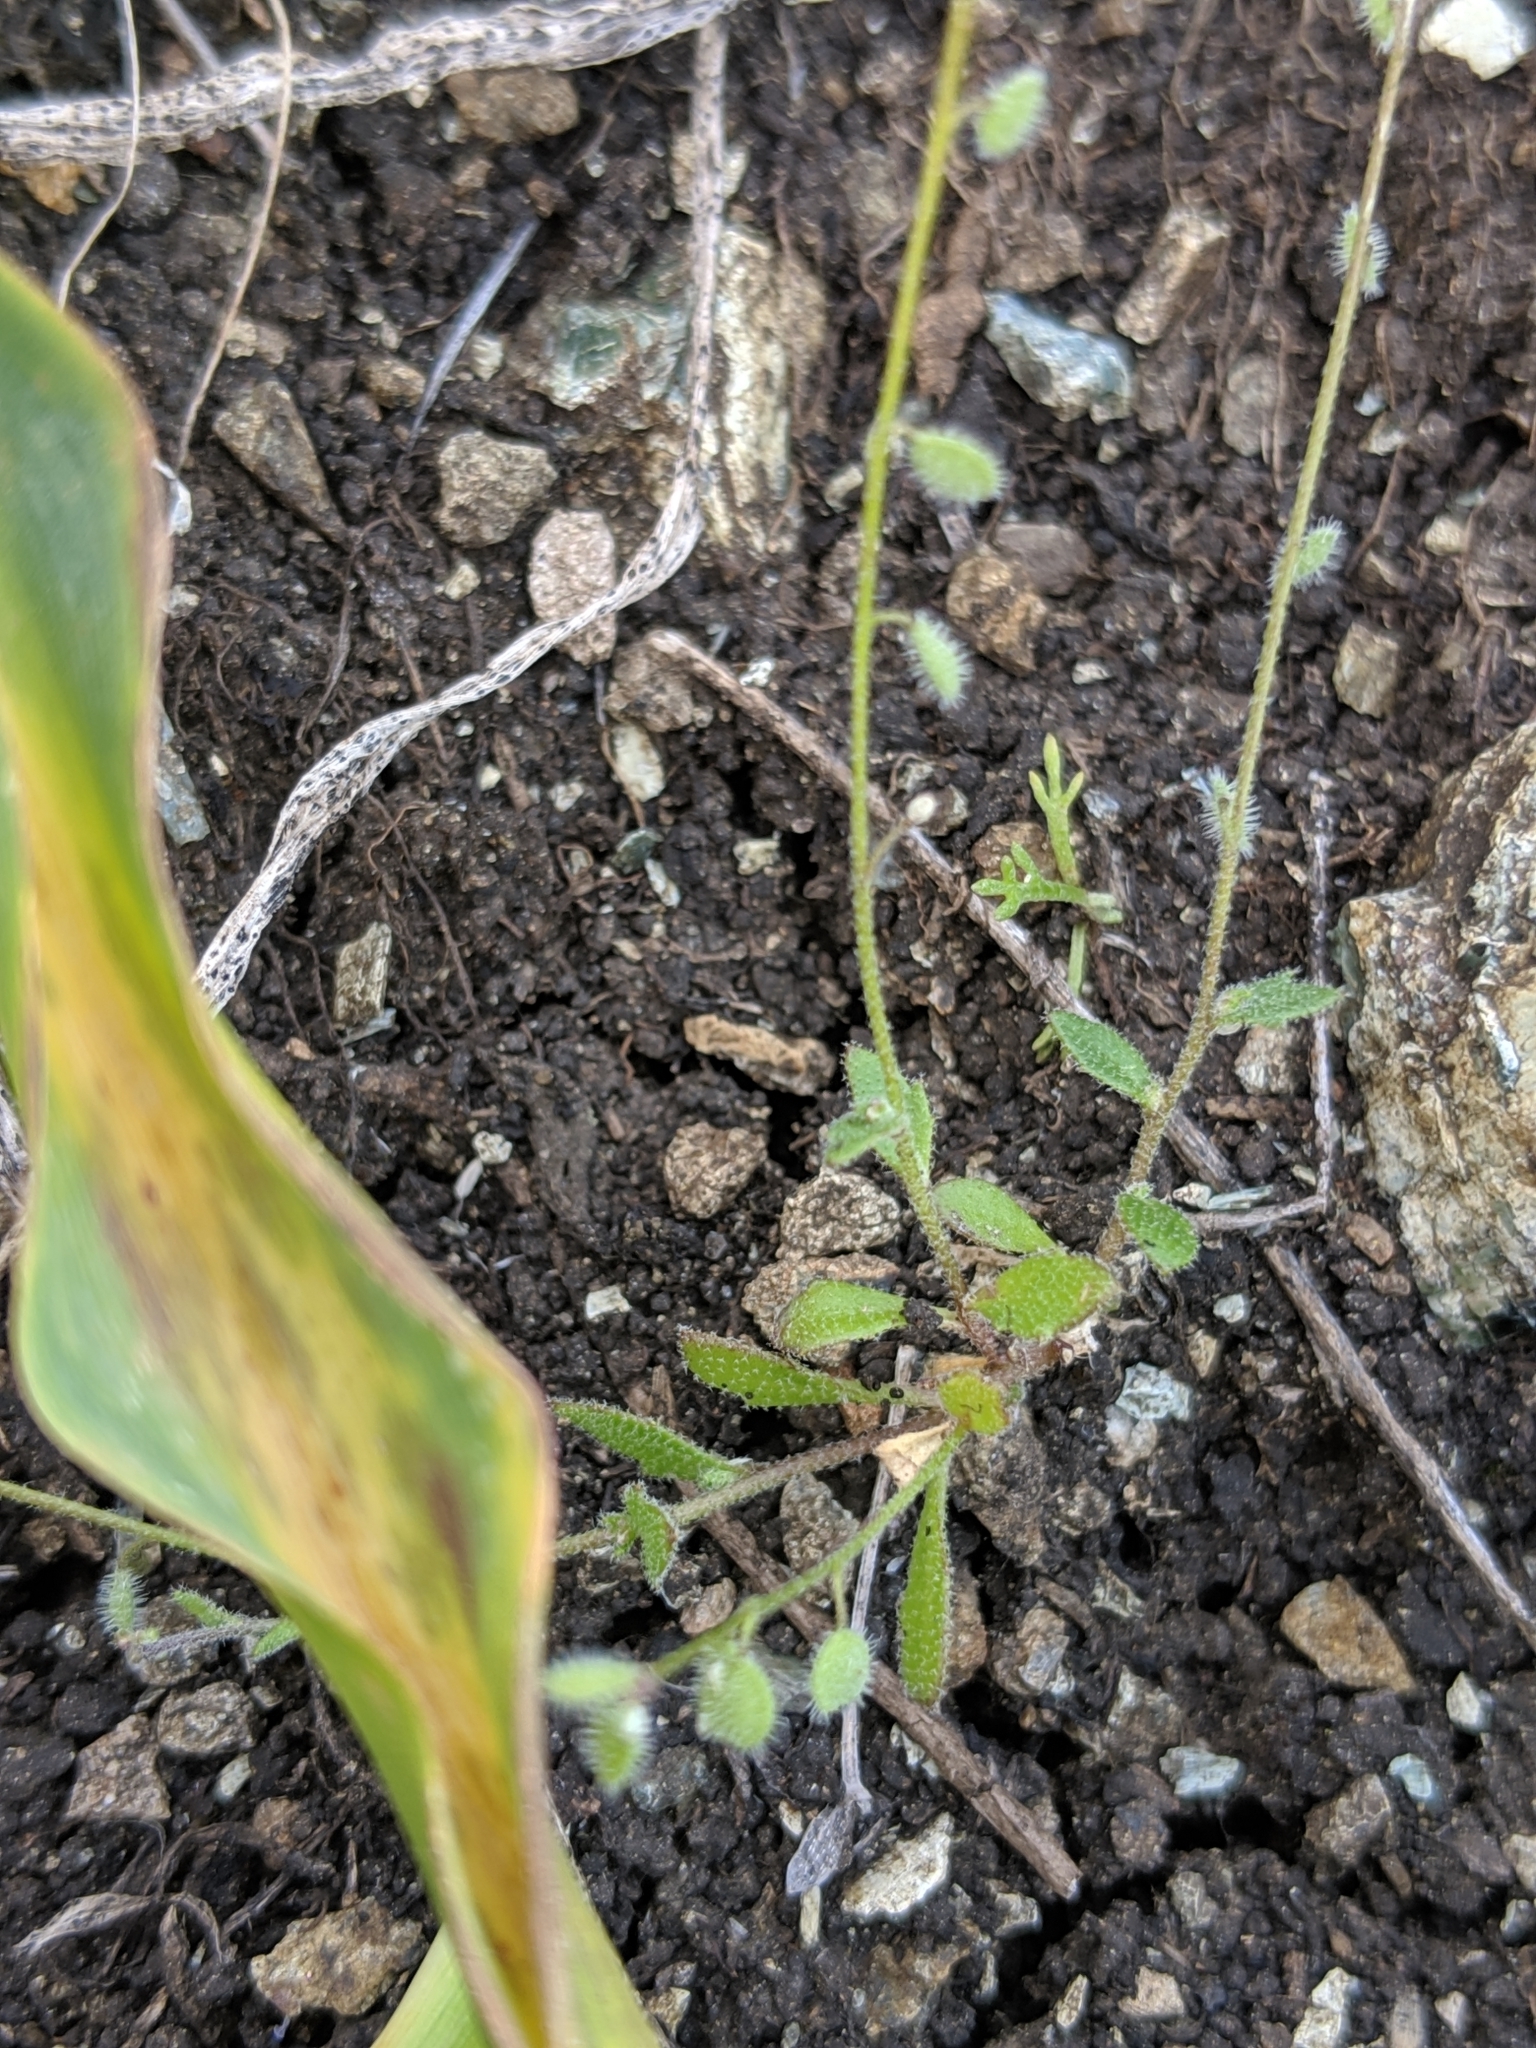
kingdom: Plantae
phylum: Tracheophyta
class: Magnoliopsida
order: Brassicales
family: Brassicaceae
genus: Athysanus
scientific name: Athysanus pusillus
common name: Common sandweed
